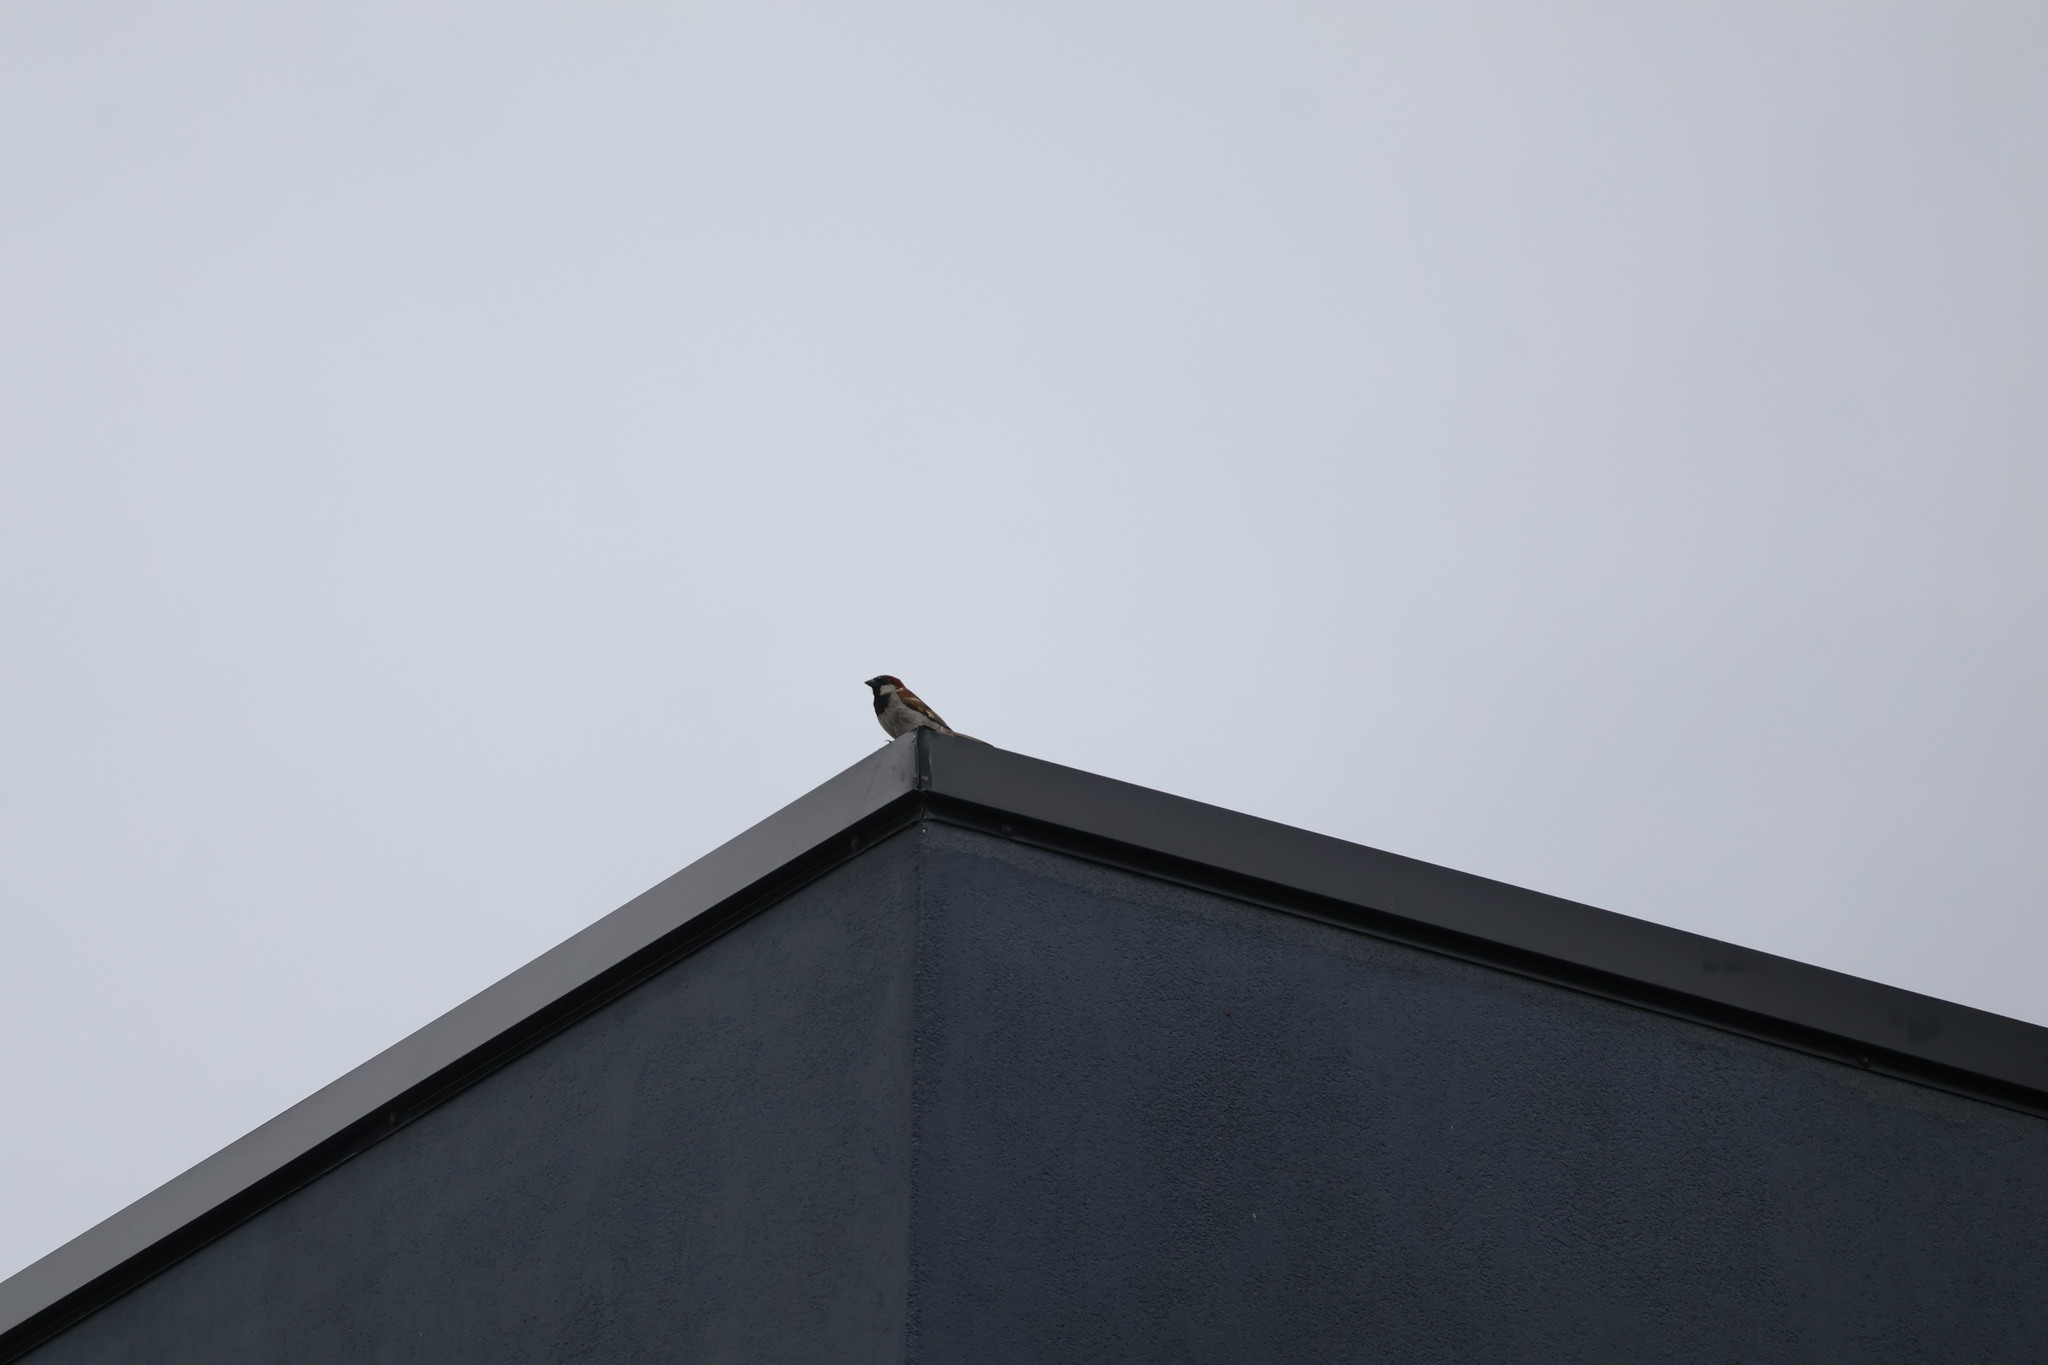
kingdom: Animalia
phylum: Chordata
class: Aves
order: Passeriformes
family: Passeridae
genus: Passer
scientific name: Passer domesticus
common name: House sparrow
